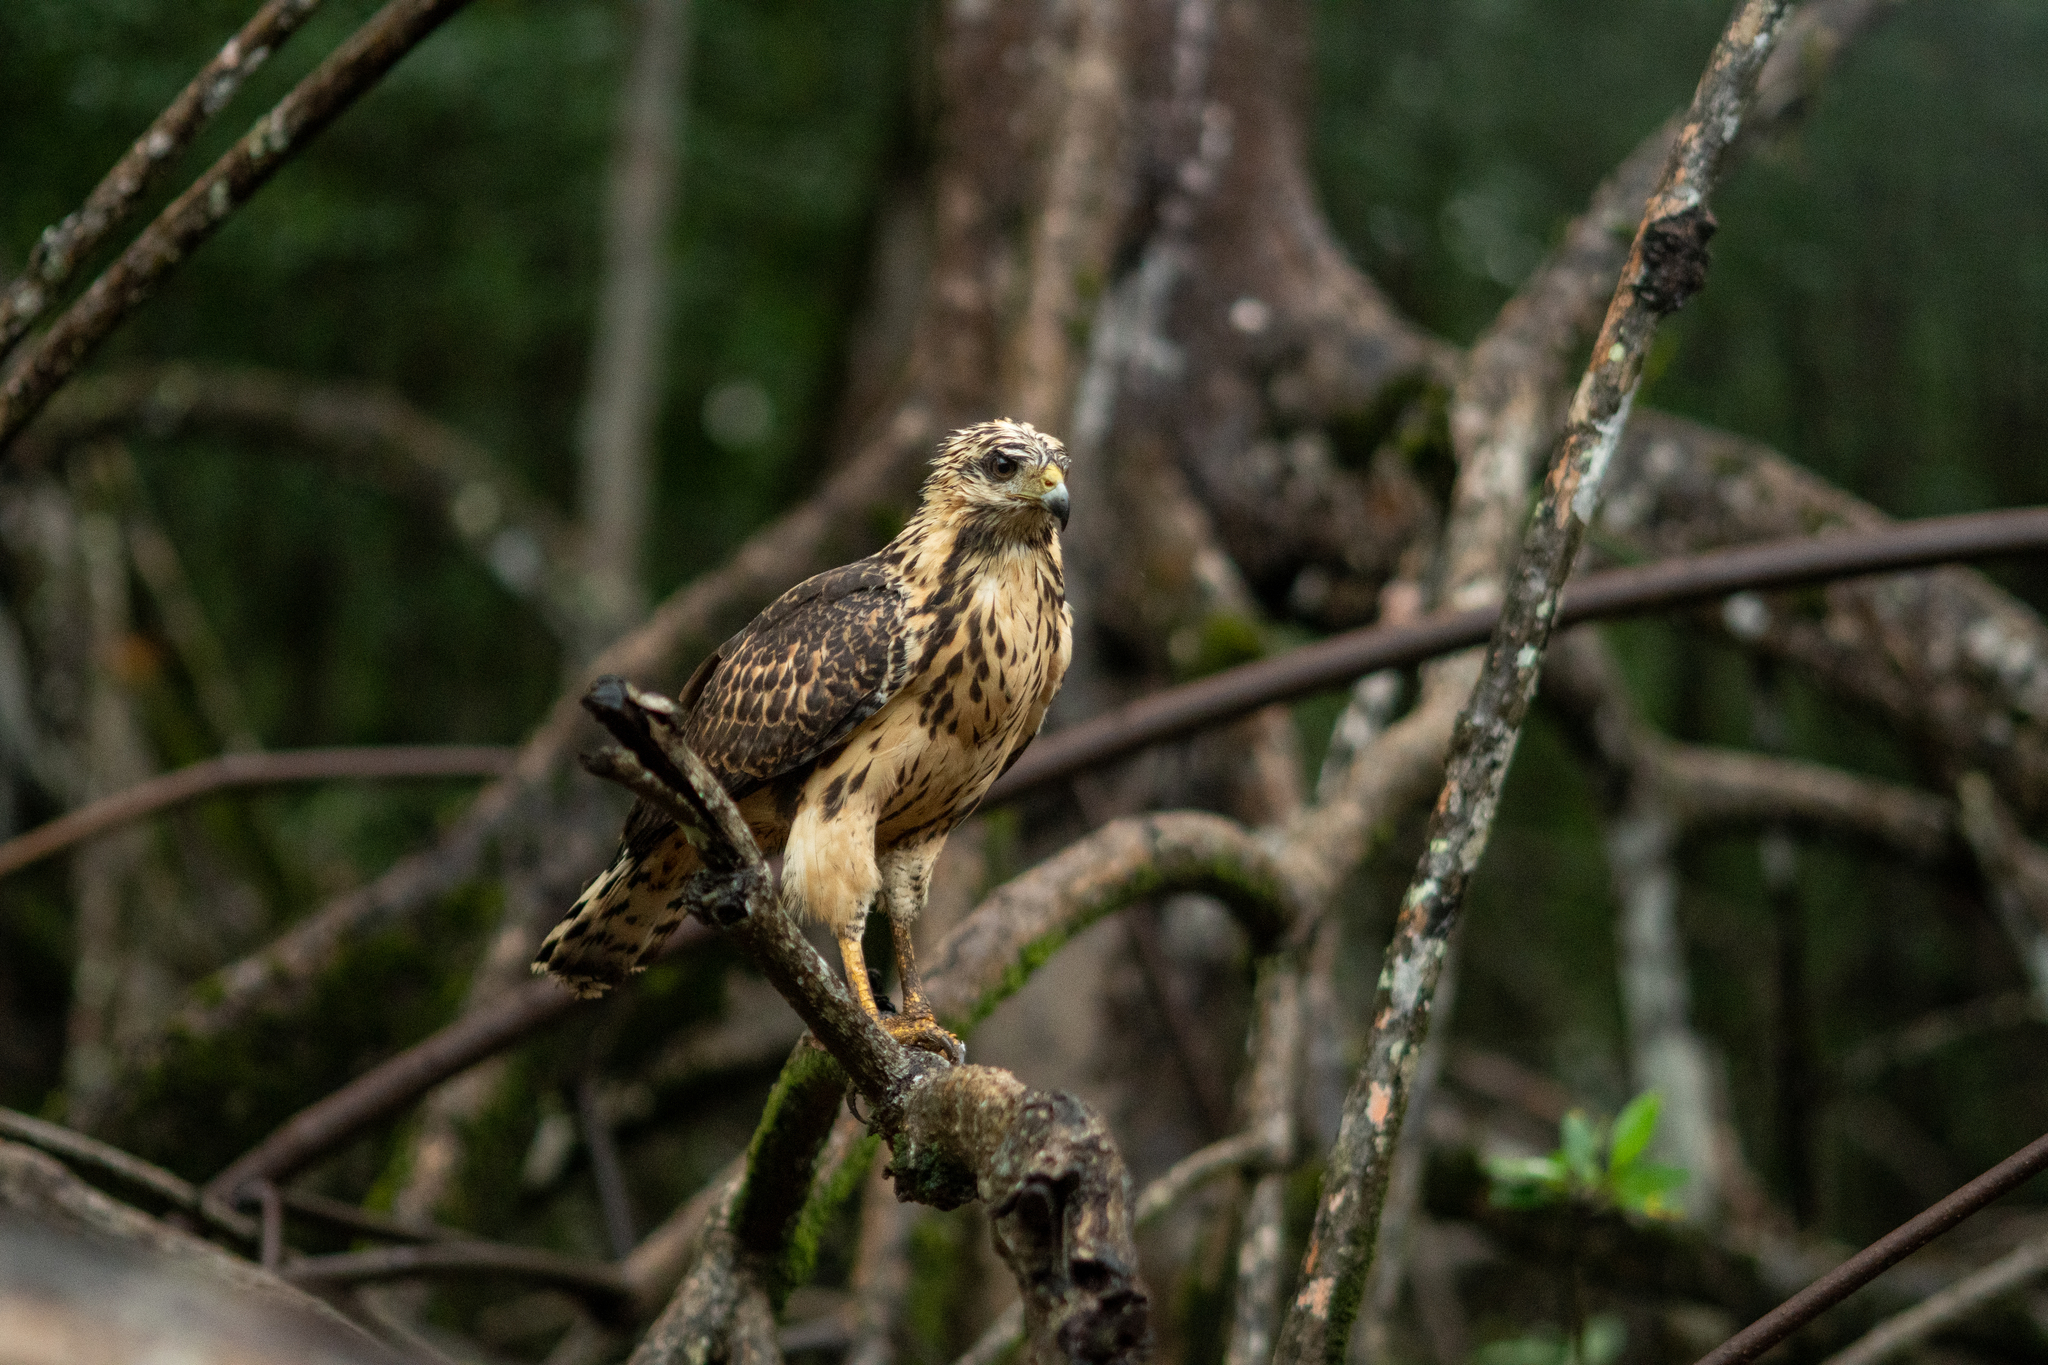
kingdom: Animalia
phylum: Chordata
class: Aves
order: Accipitriformes
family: Accipitridae
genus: Buteogallus
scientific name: Buteogallus anthracinus
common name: Common black hawk
